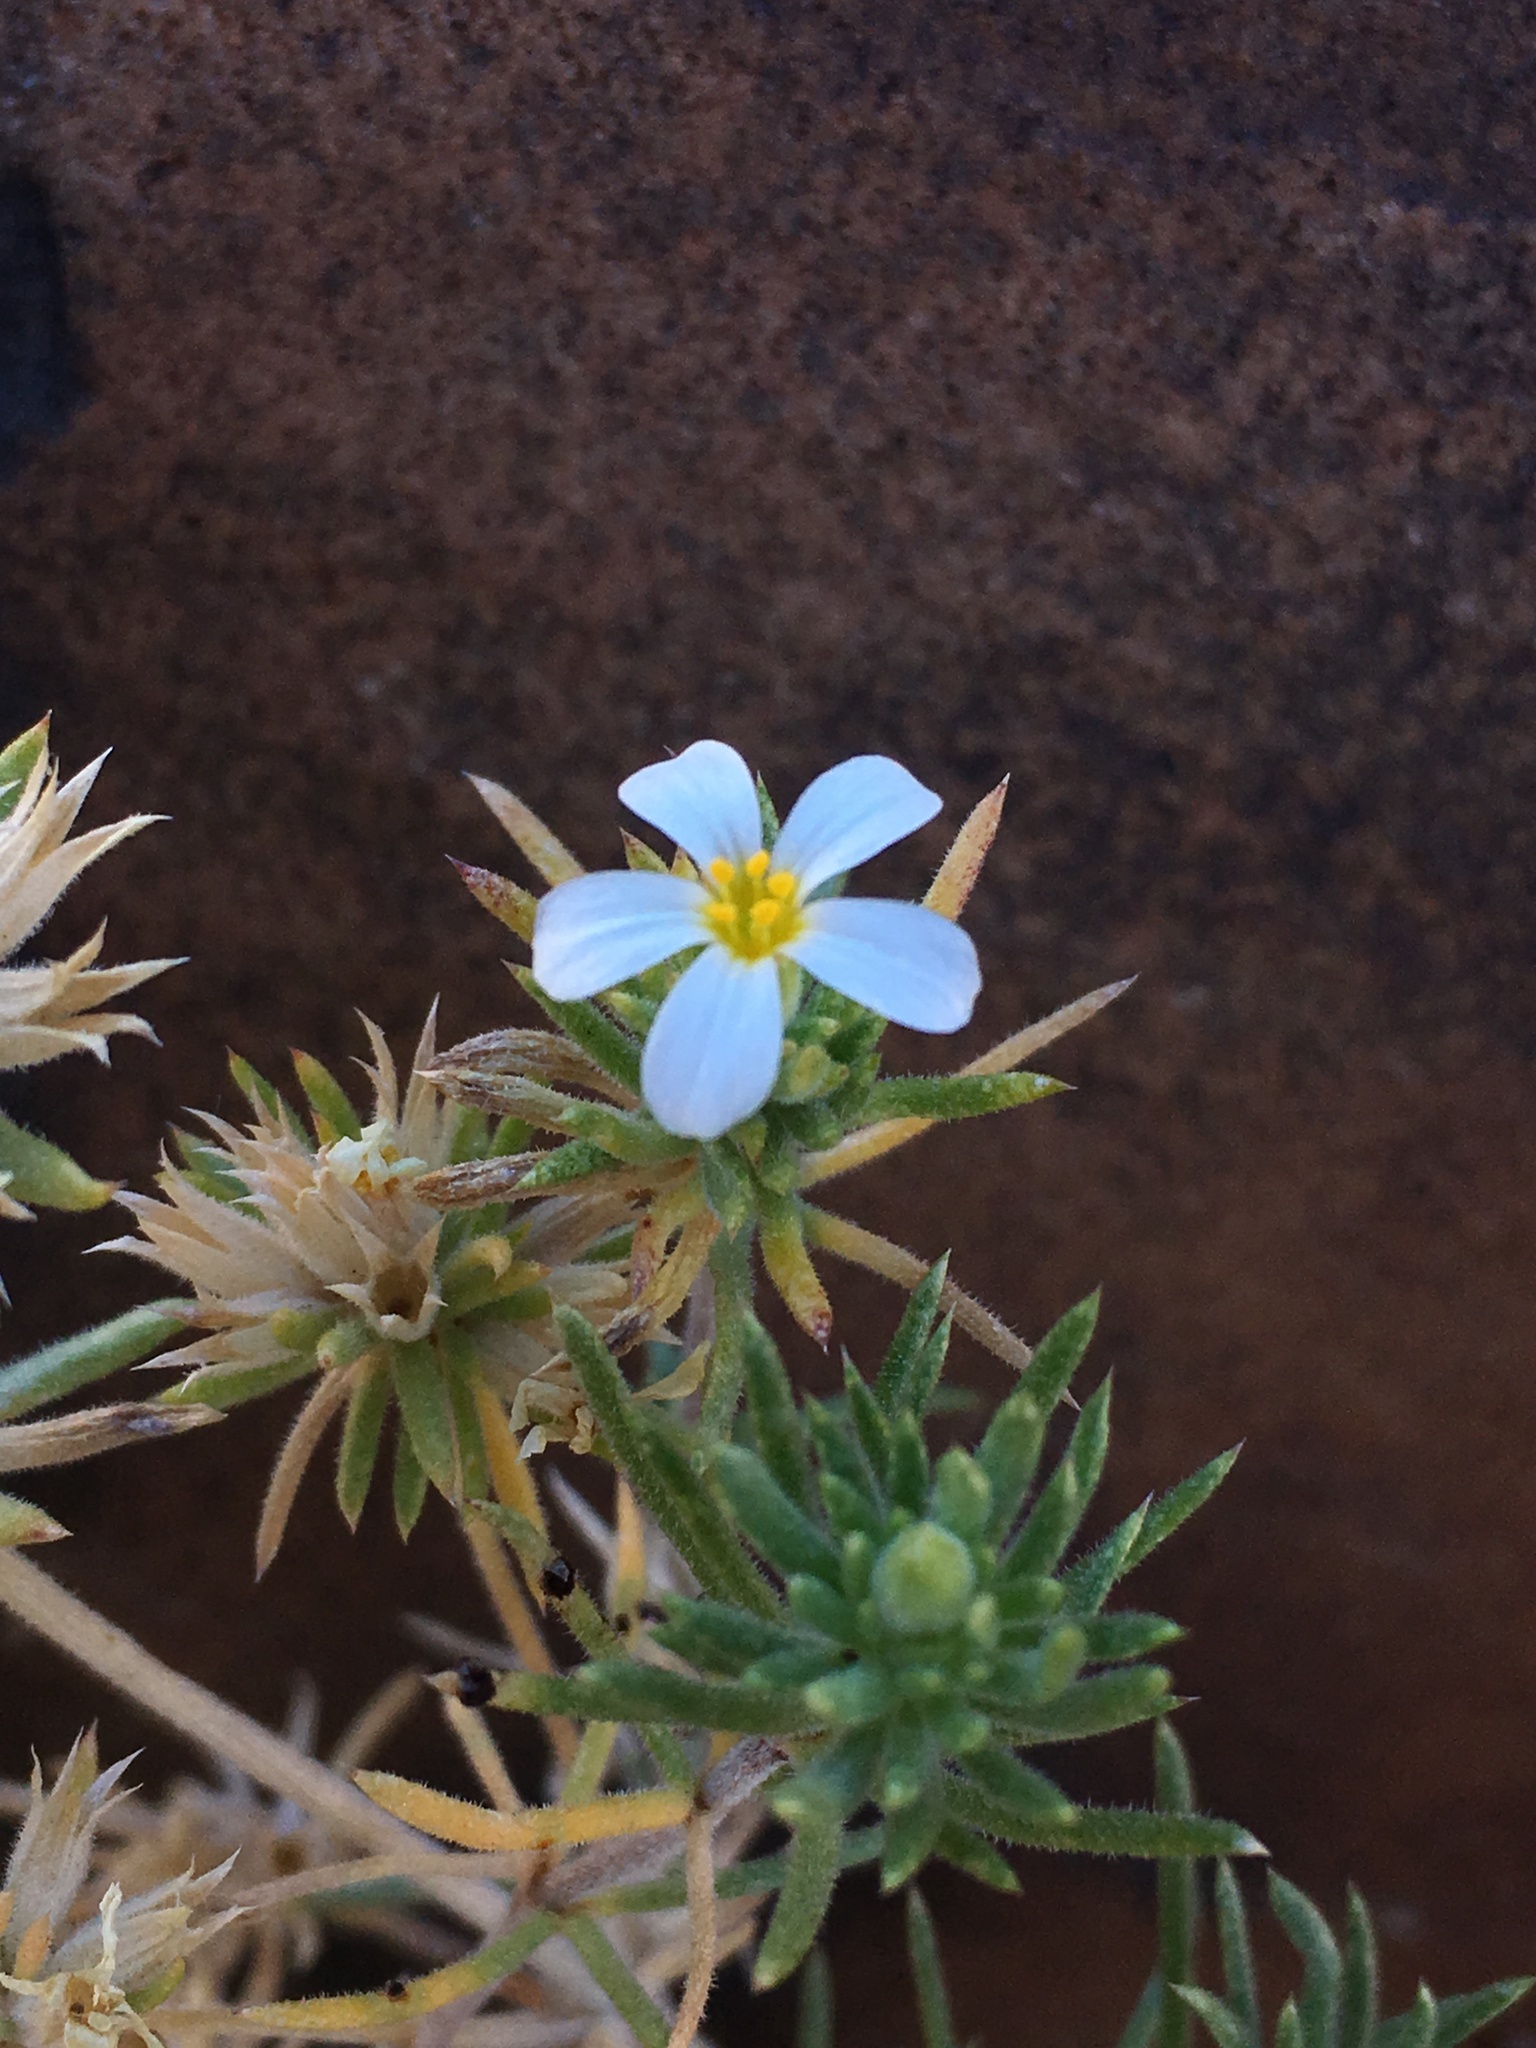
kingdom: Plantae
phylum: Tracheophyta
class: Magnoliopsida
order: Ericales
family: Polemoniaceae
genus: Leptosiphon
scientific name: Leptosiphon nuttallii
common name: Nuttall's linanthus
